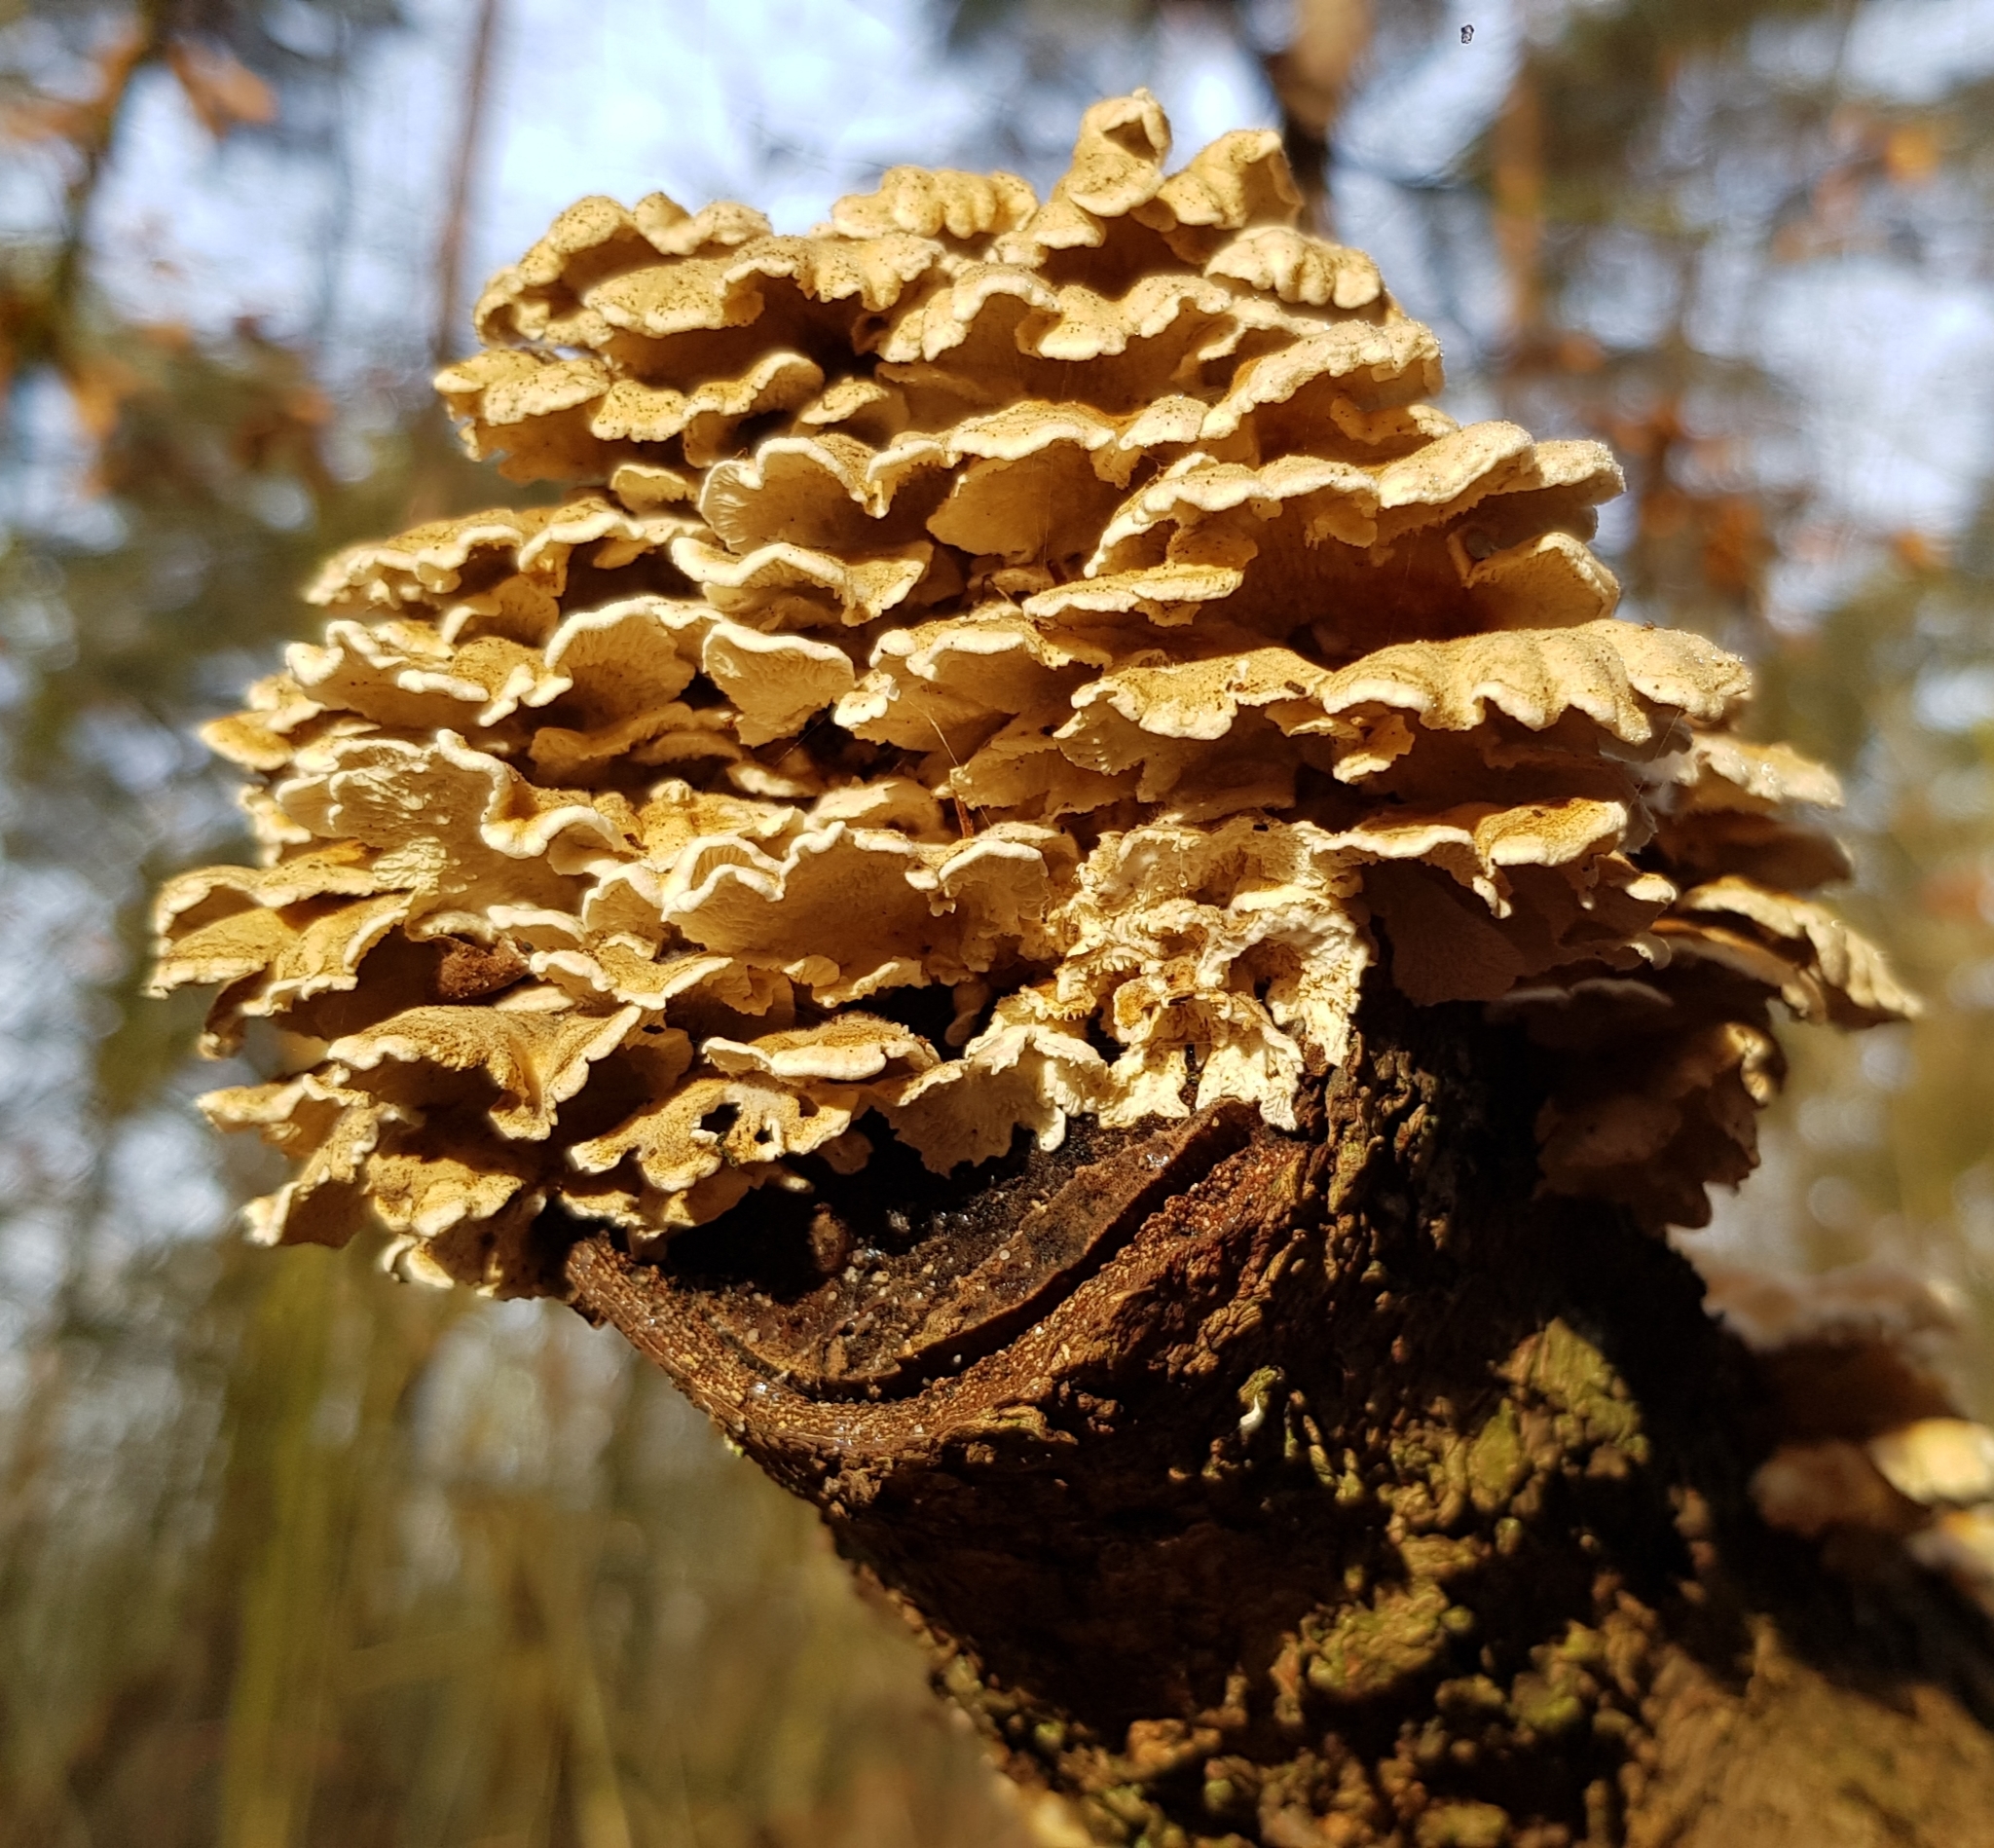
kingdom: Fungi
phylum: Basidiomycota
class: Agaricomycetes
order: Amylocorticiales
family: Amylocorticiaceae
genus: Plicaturopsis
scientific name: Plicaturopsis crispa
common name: Crimped gill
